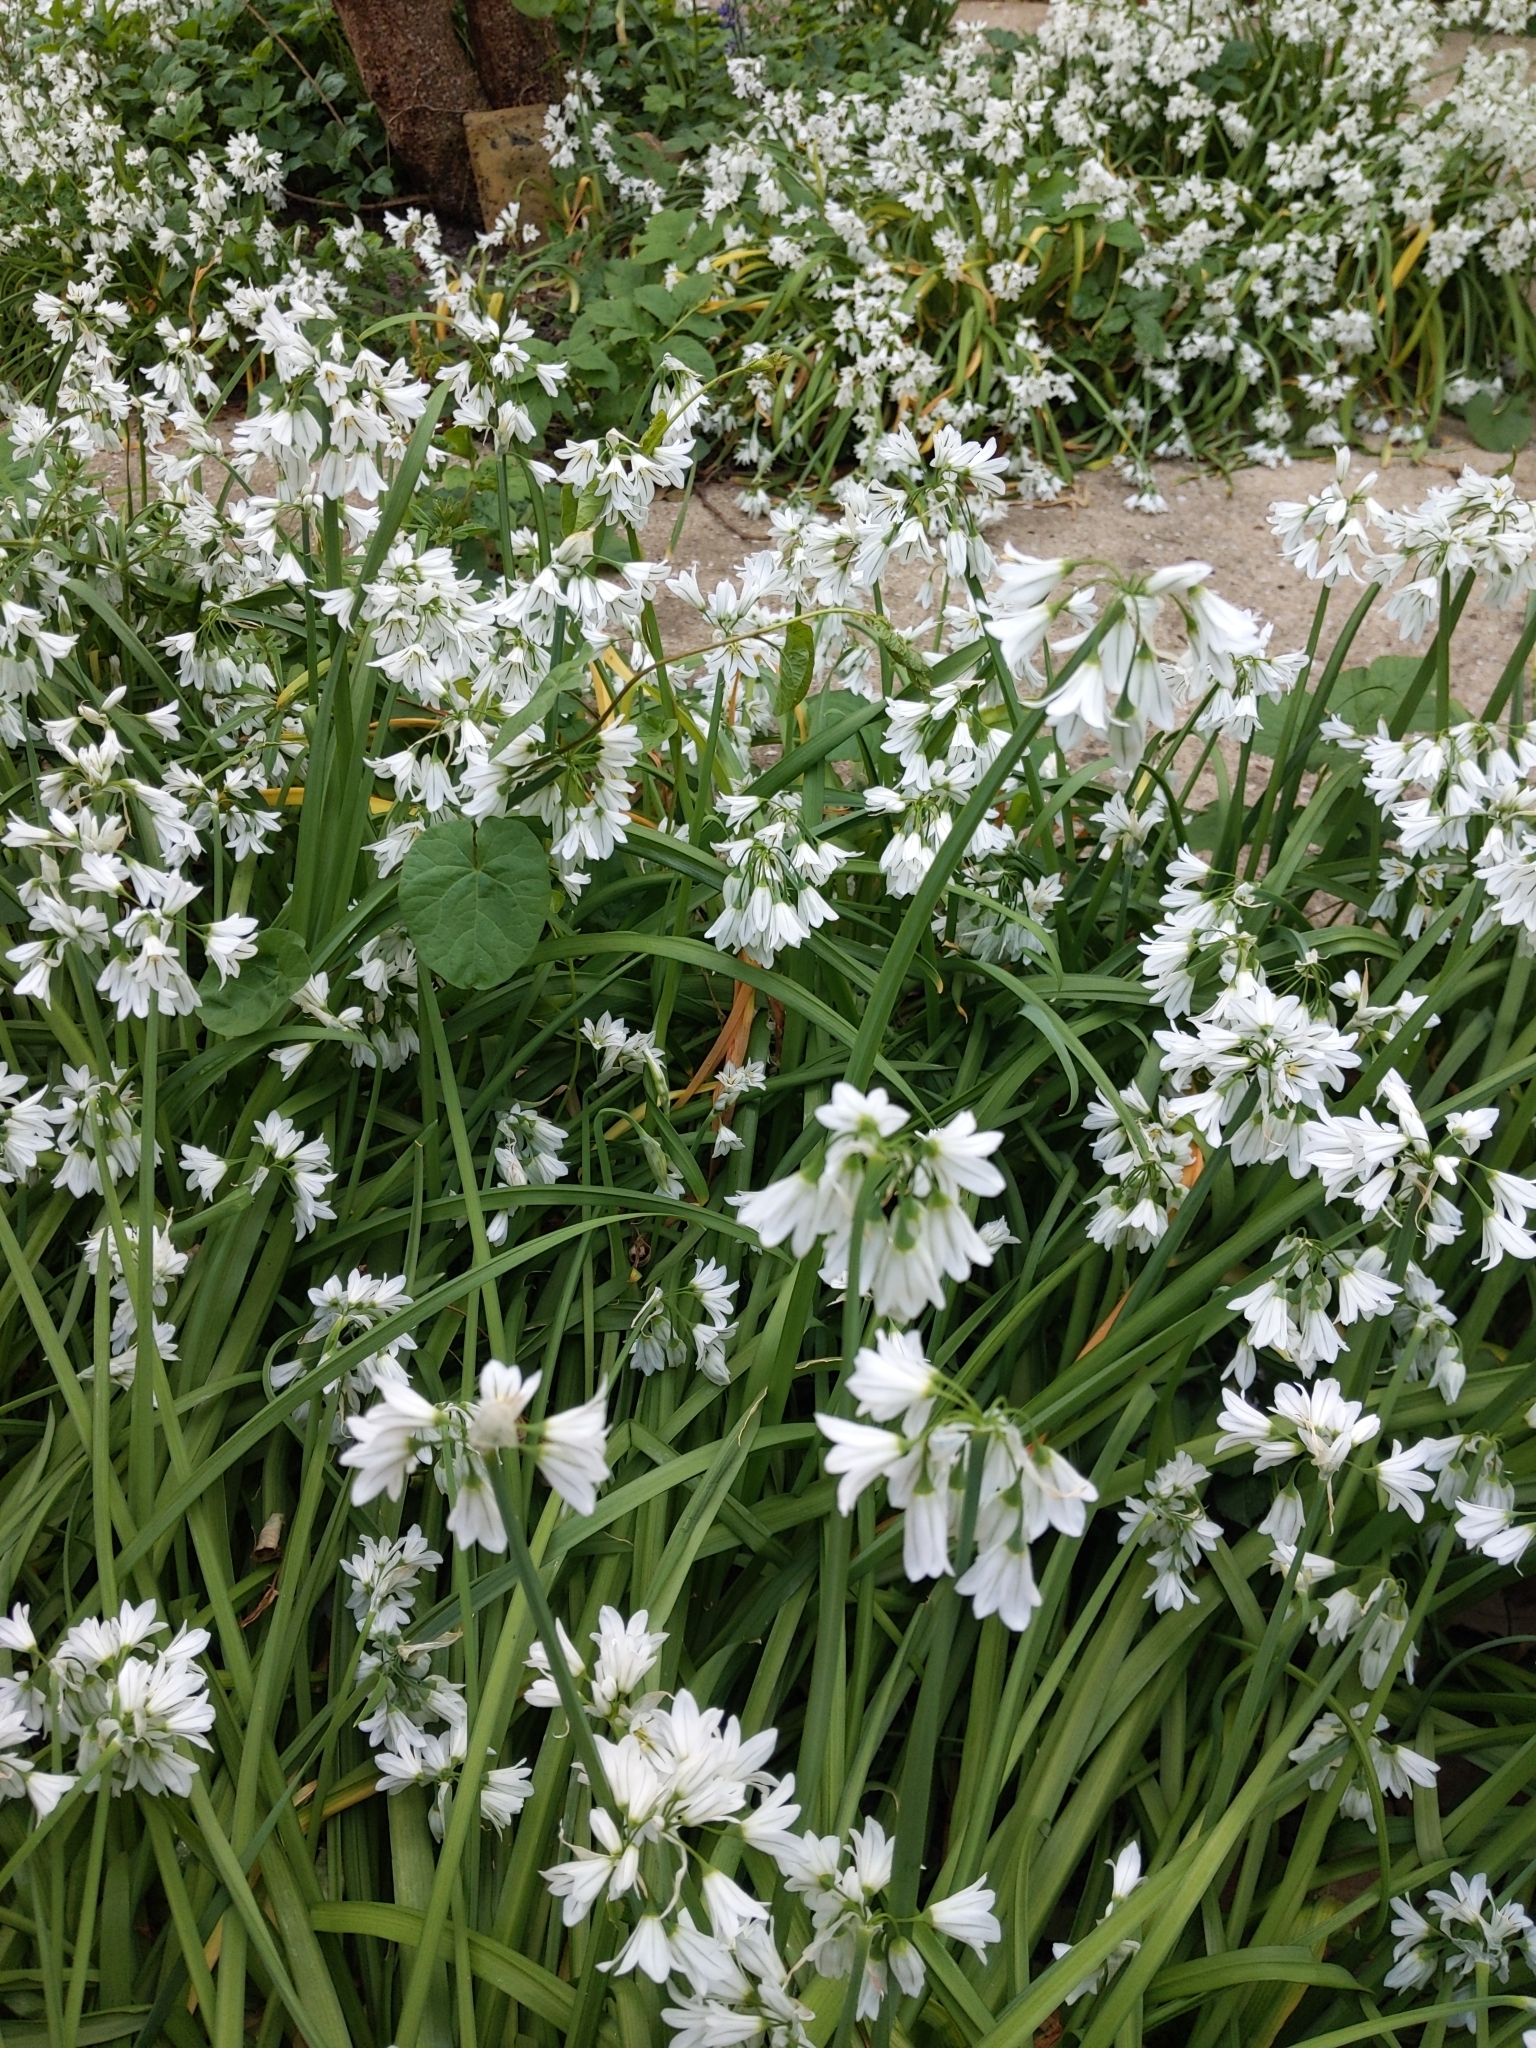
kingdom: Plantae
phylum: Tracheophyta
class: Liliopsida
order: Asparagales
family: Amaryllidaceae
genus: Allium
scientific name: Allium triquetrum
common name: Three-cornered garlic
